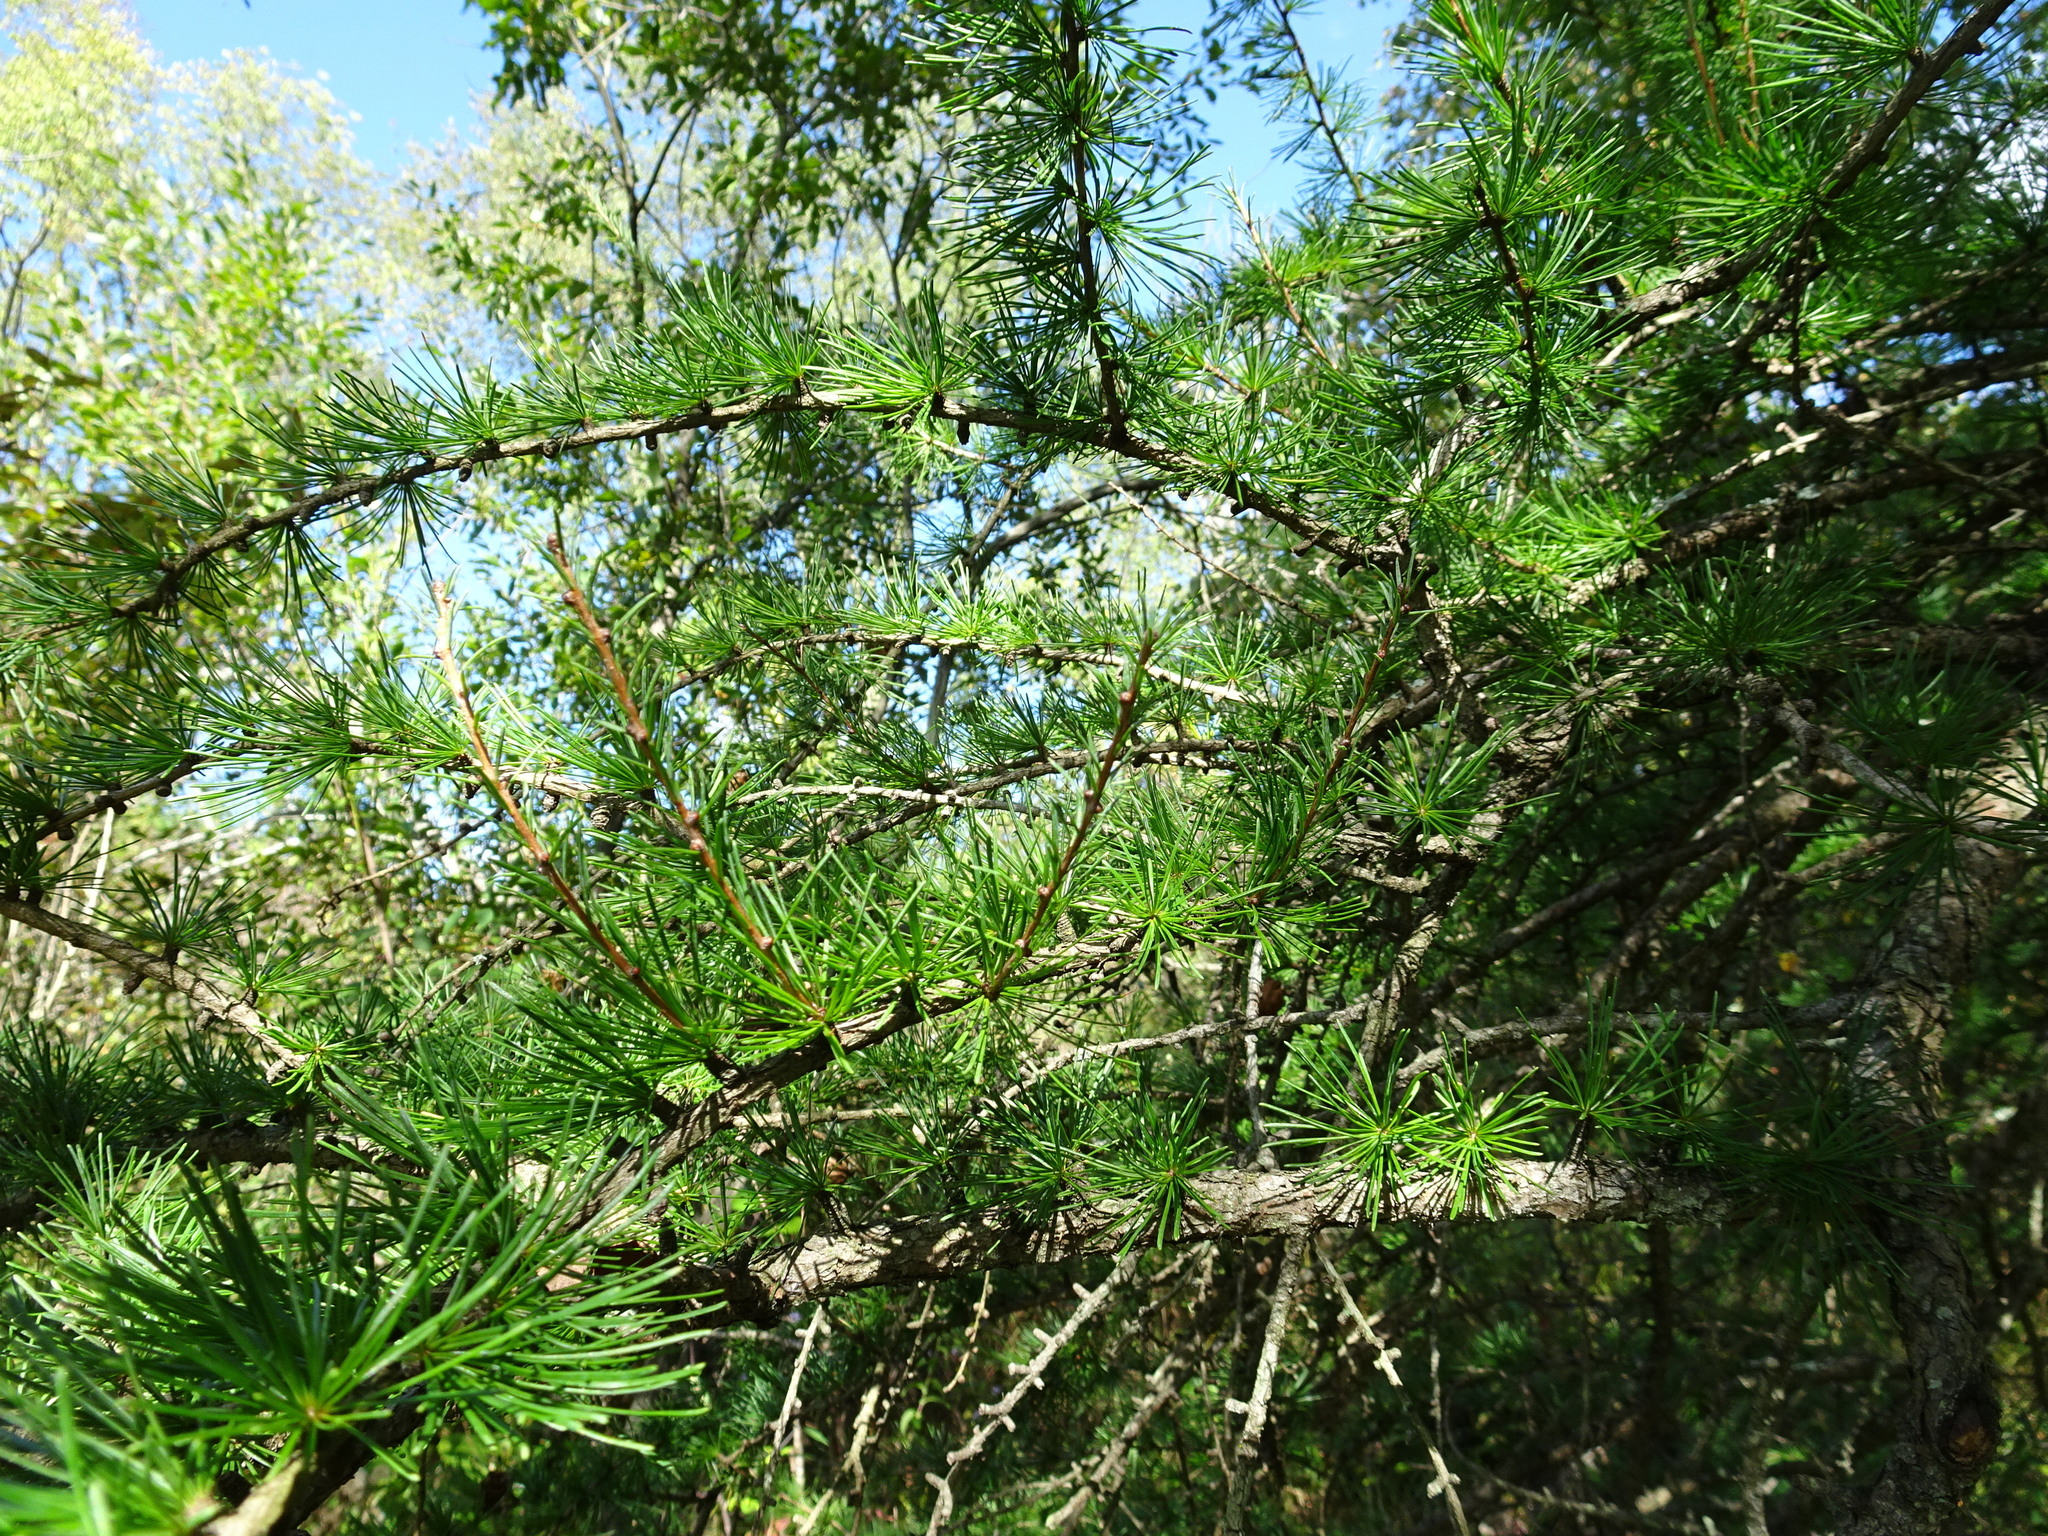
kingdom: Plantae
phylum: Tracheophyta
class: Pinopsida
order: Pinales
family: Pinaceae
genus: Larix
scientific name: Larix laricina
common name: American larch
